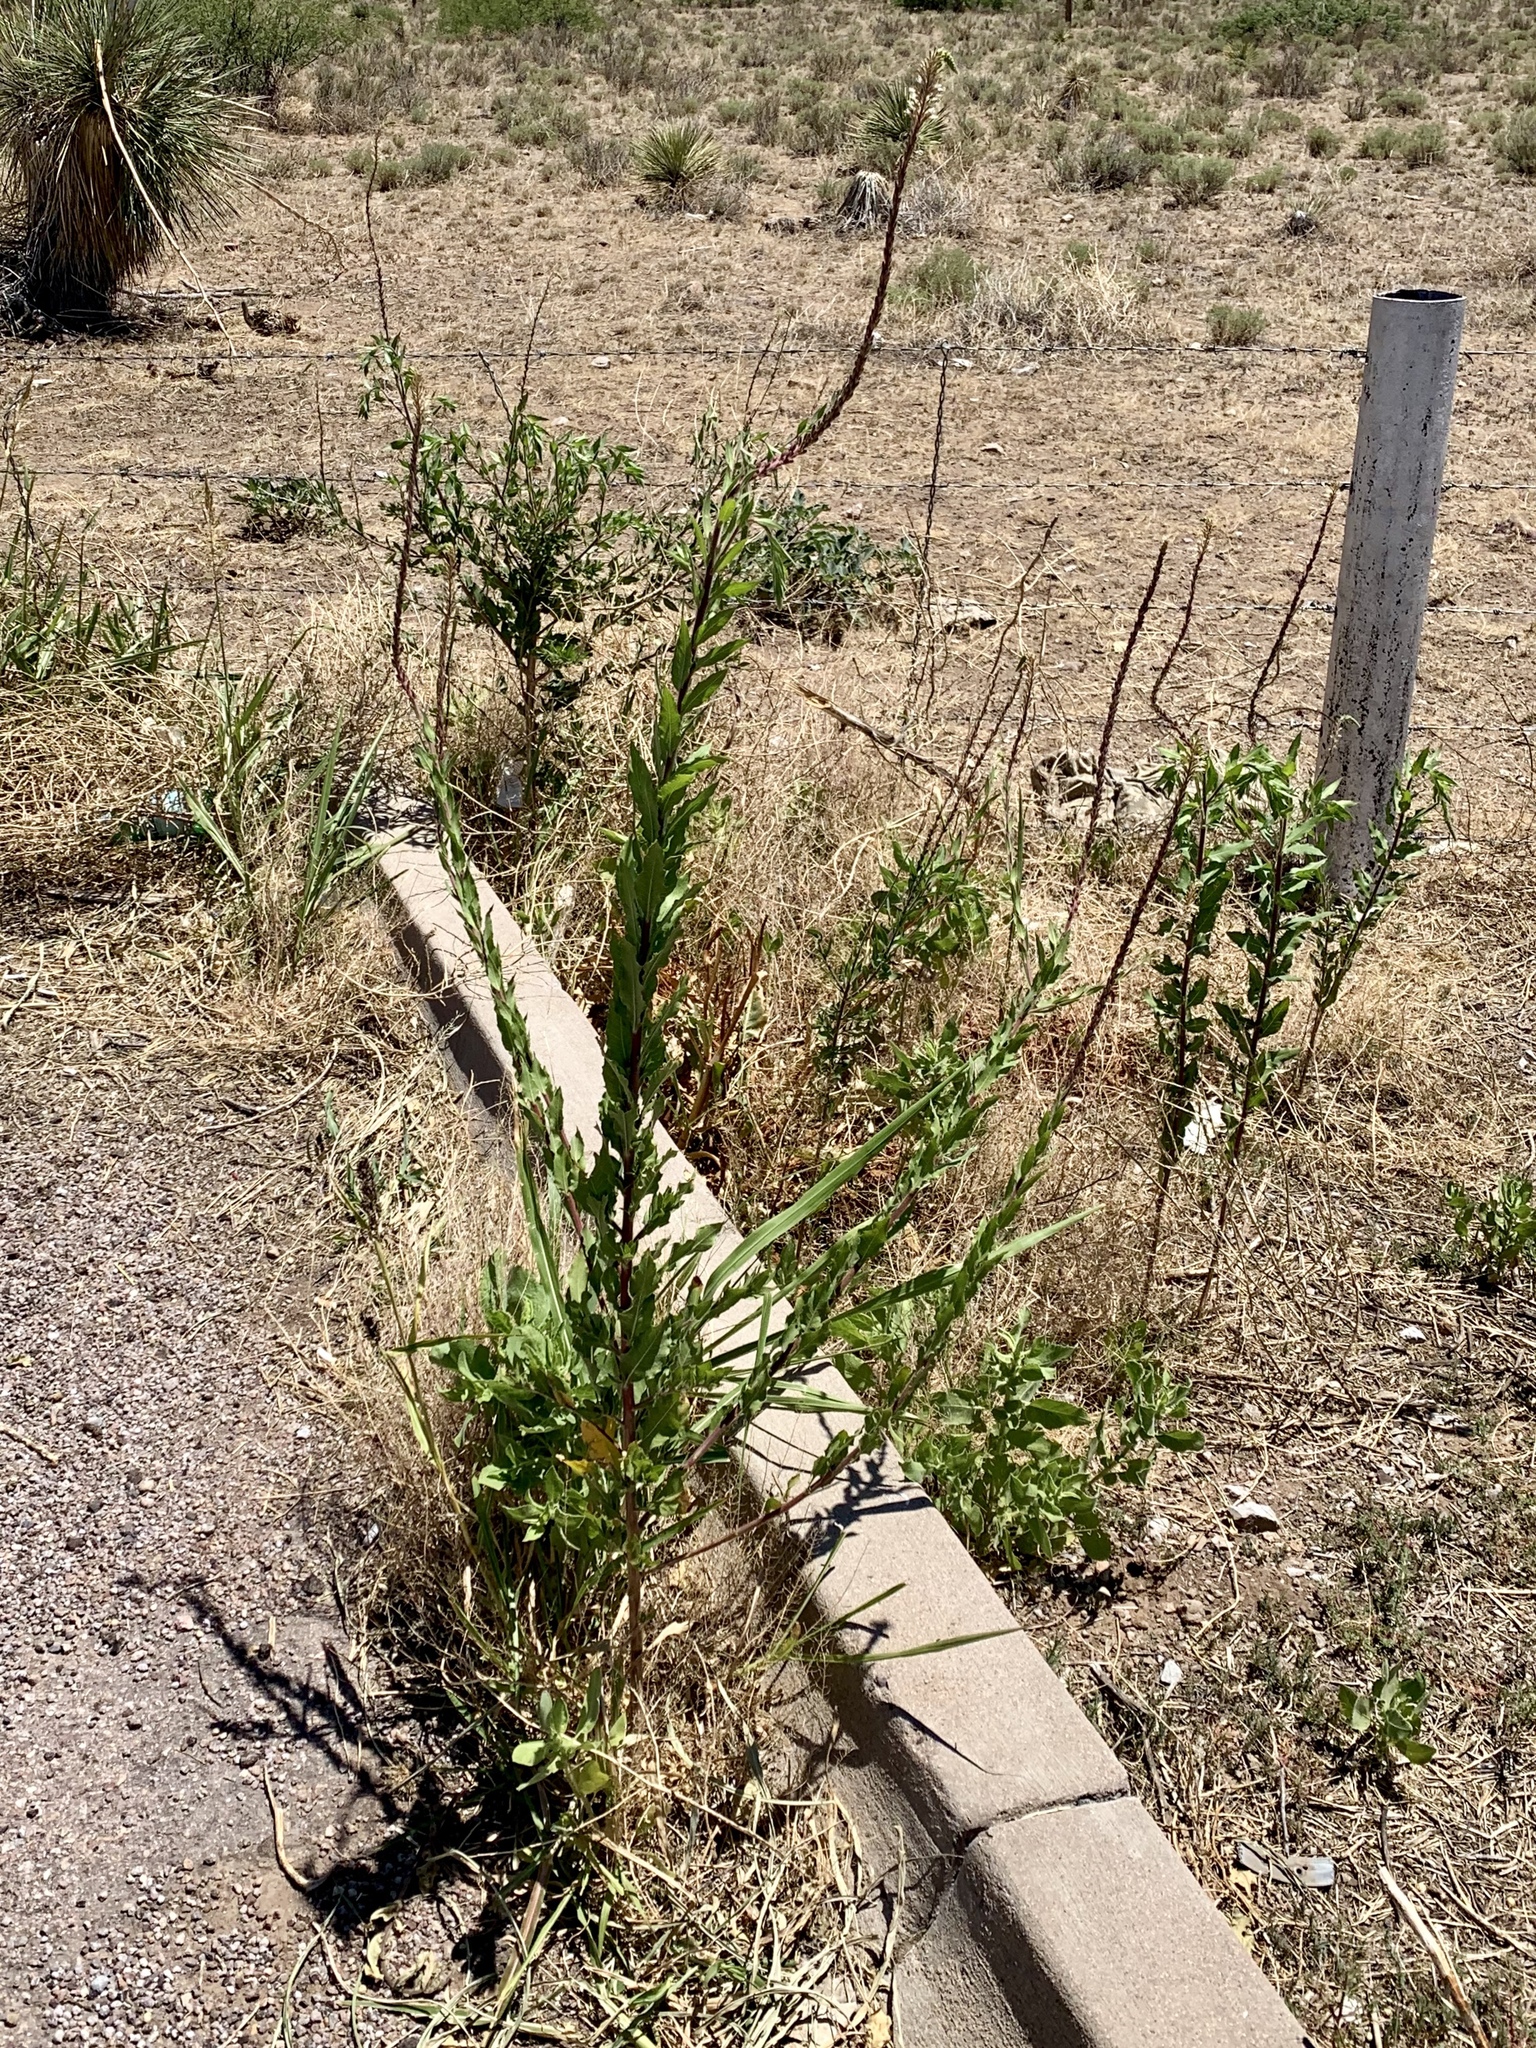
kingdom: Plantae
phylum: Tracheophyta
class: Magnoliopsida
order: Myrtales
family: Onagraceae
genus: Oenothera
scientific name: Oenothera curtiflora
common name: Velvetweed
